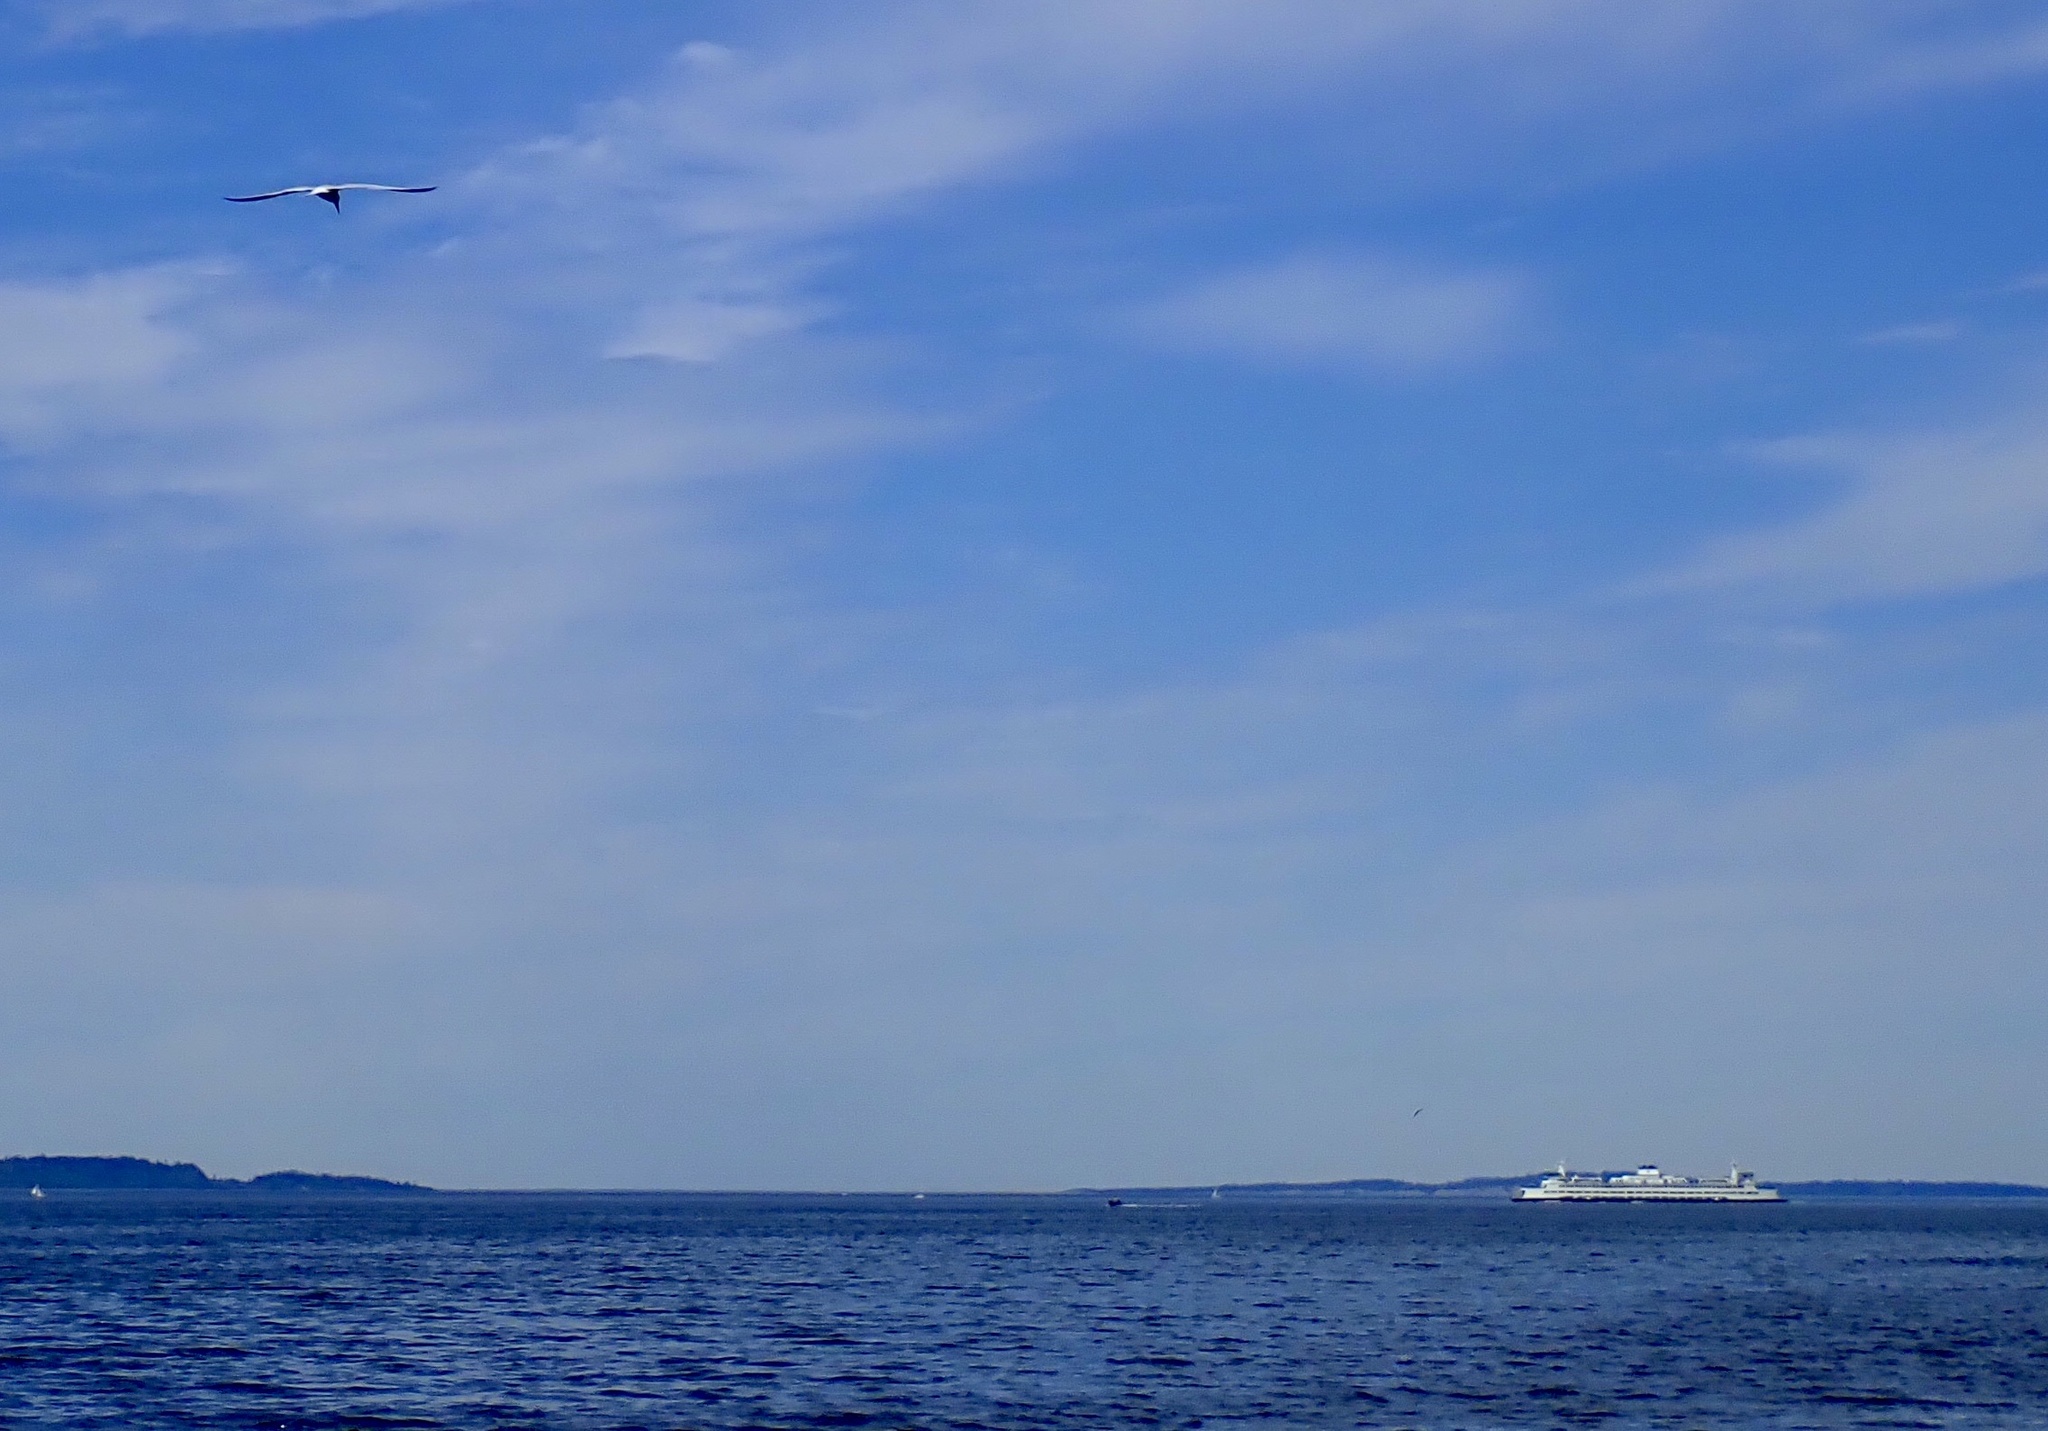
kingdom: Animalia
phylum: Chordata
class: Aves
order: Charadriiformes
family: Laridae
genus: Hydroprogne
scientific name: Hydroprogne caspia
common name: Caspian tern
